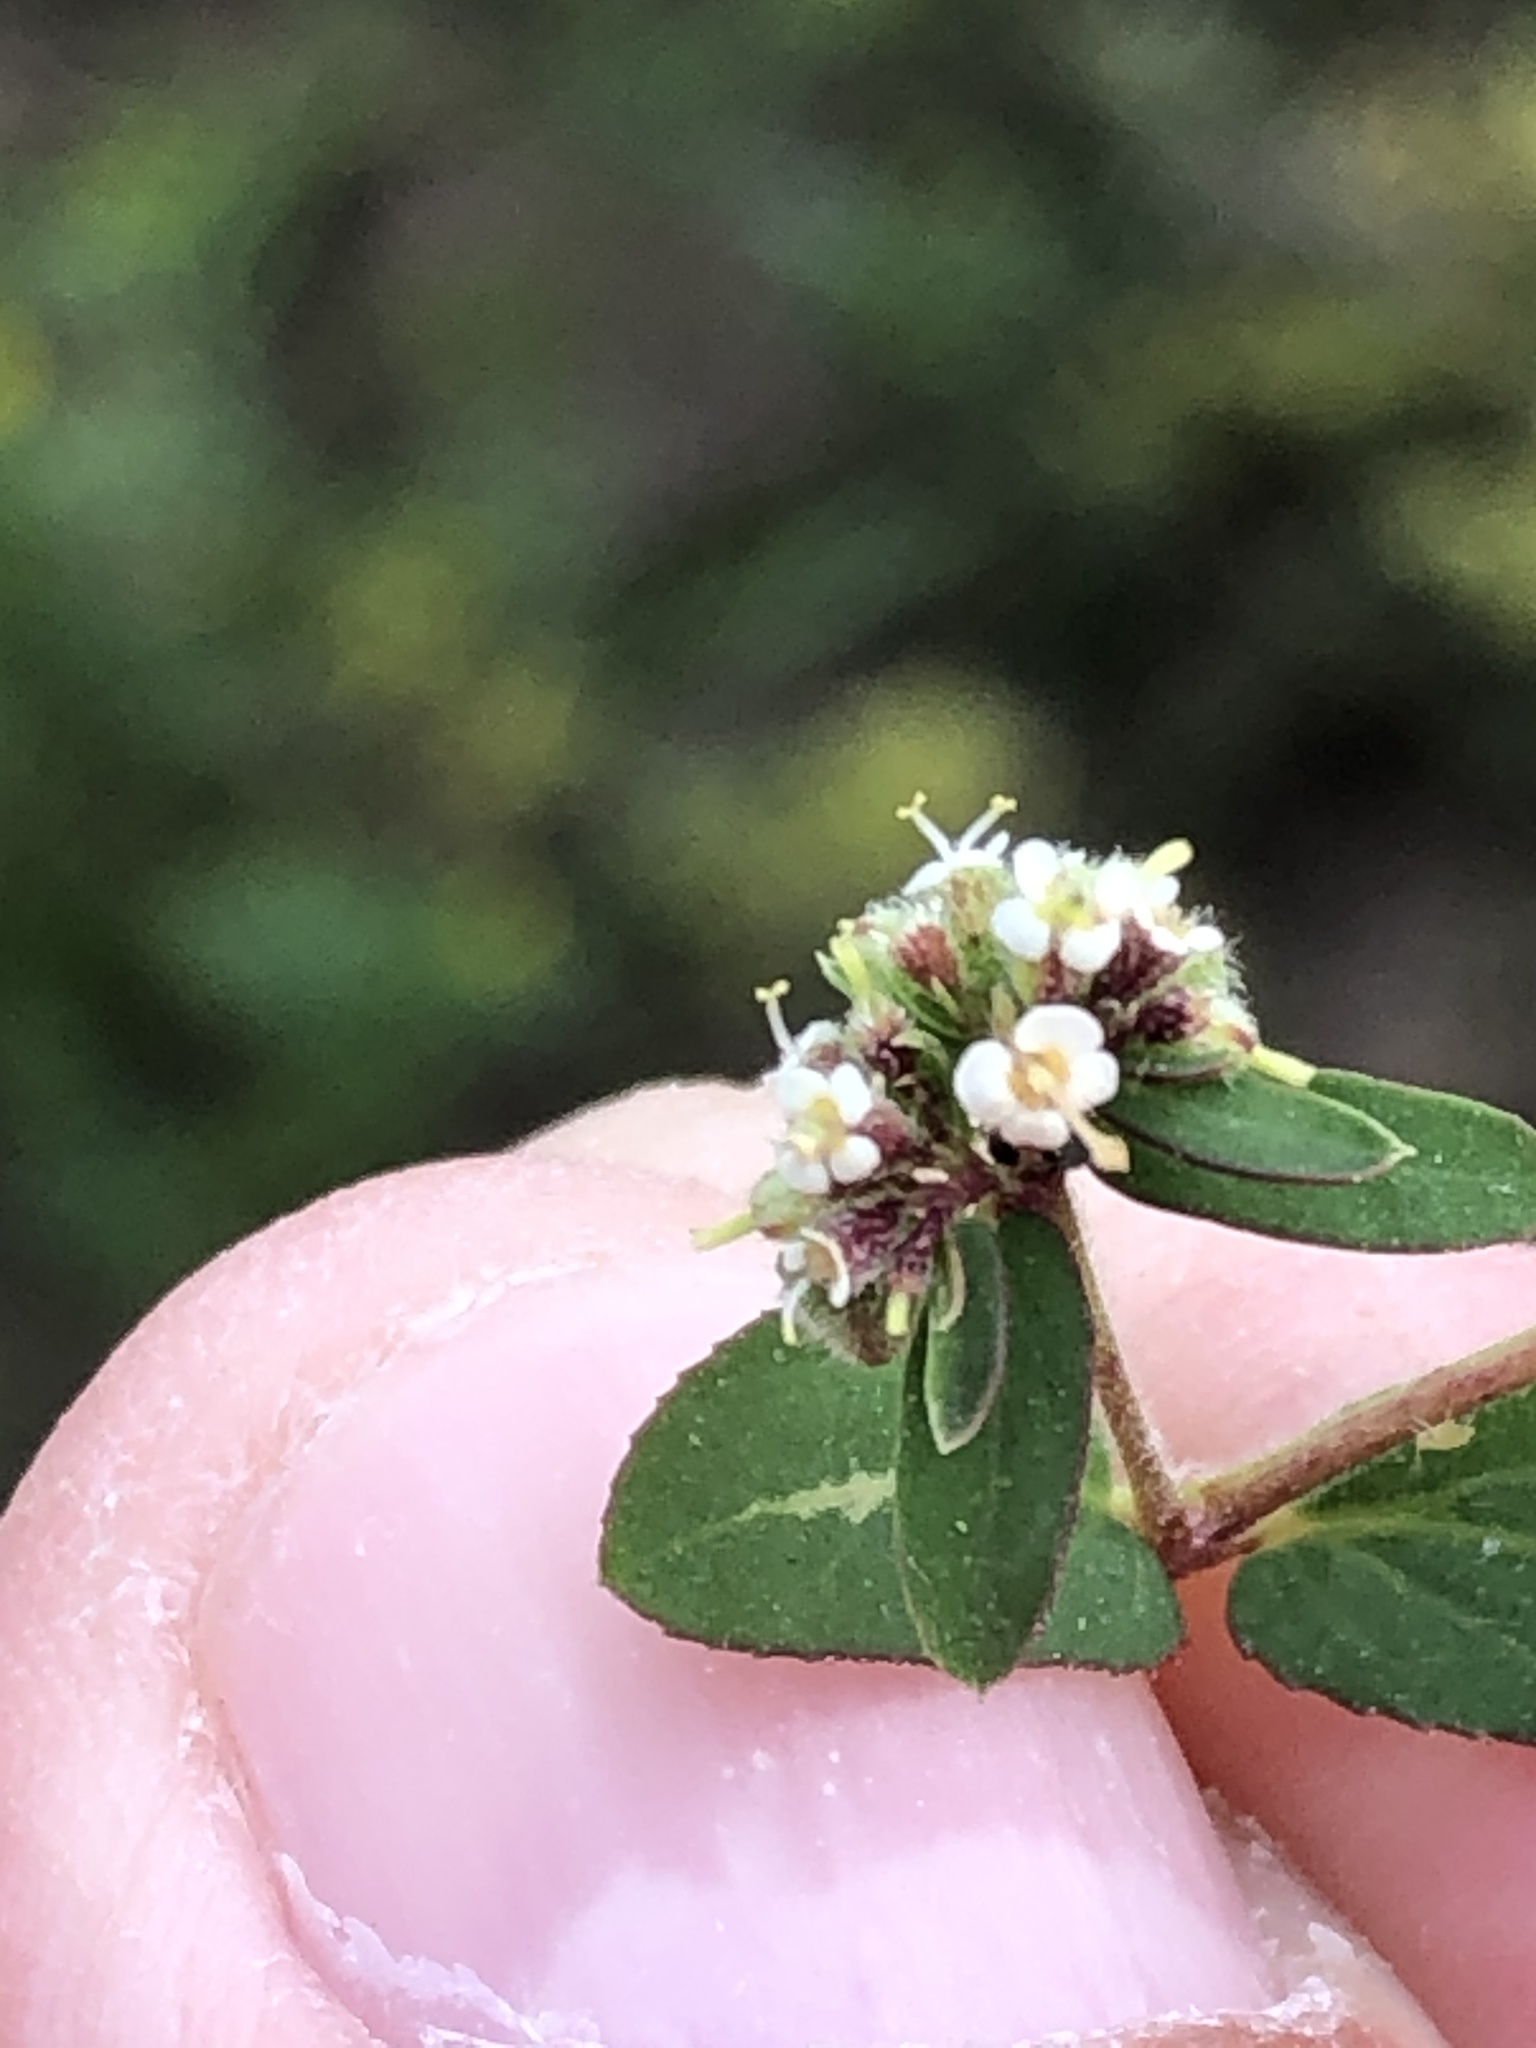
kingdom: Plantae
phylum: Tracheophyta
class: Magnoliopsida
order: Malpighiales
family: Euphorbiaceae
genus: Euphorbia
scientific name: Euphorbia lasiocarpa
